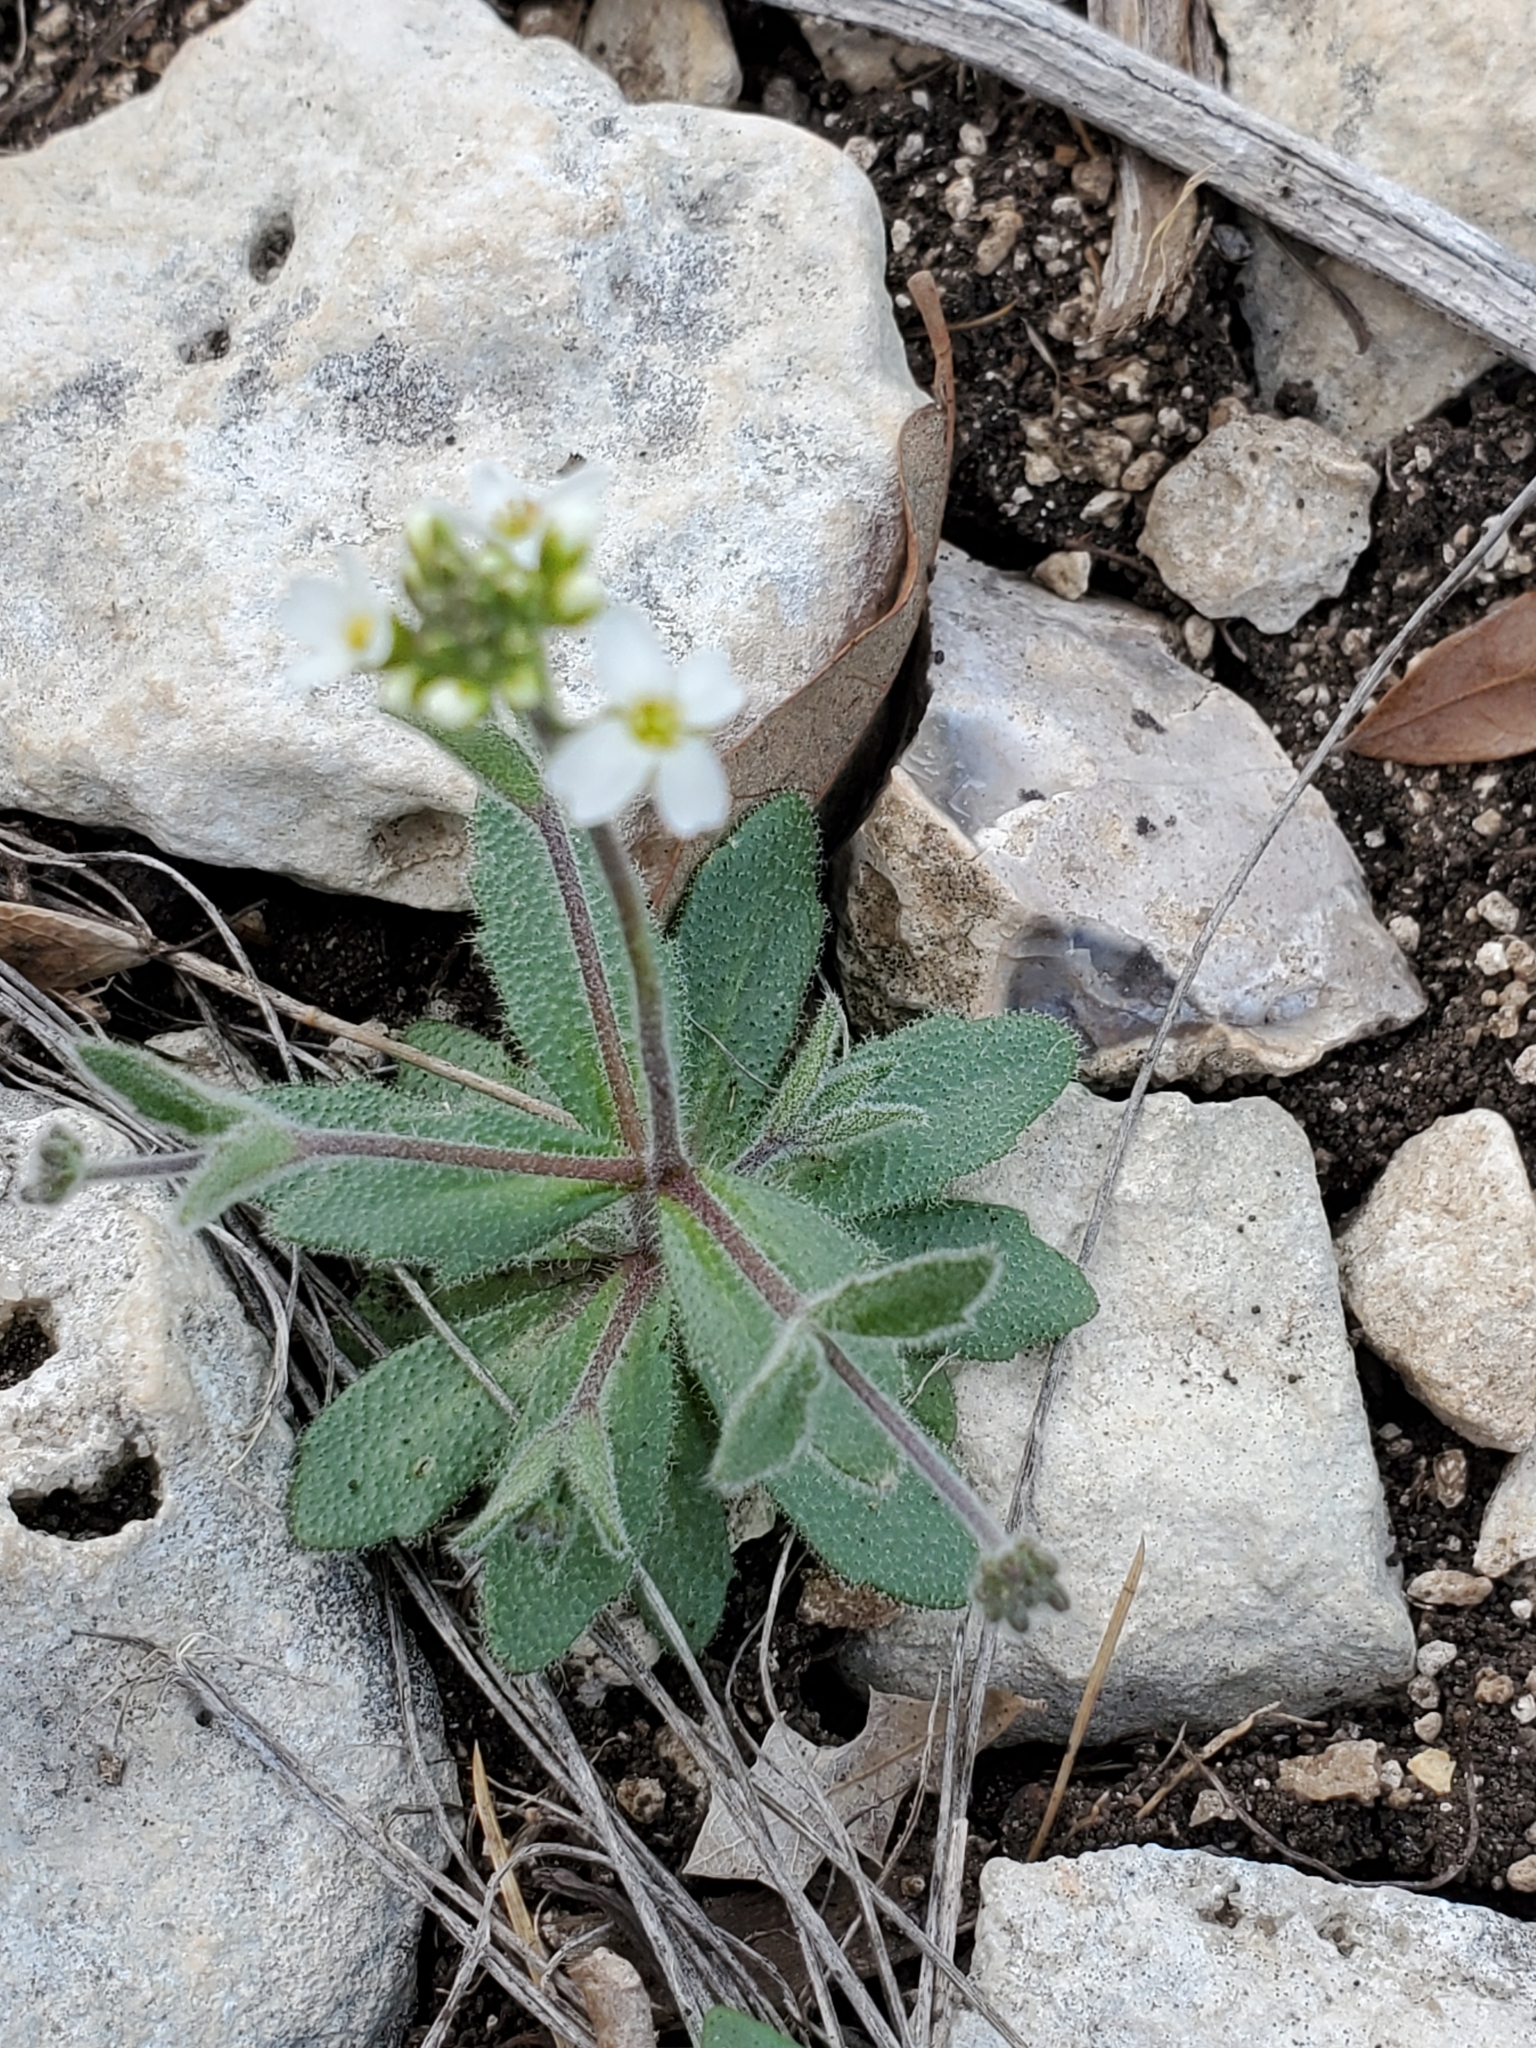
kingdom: Plantae
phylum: Tracheophyta
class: Magnoliopsida
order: Brassicales
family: Brassicaceae
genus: Tomostima
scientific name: Tomostima cuneifolia
